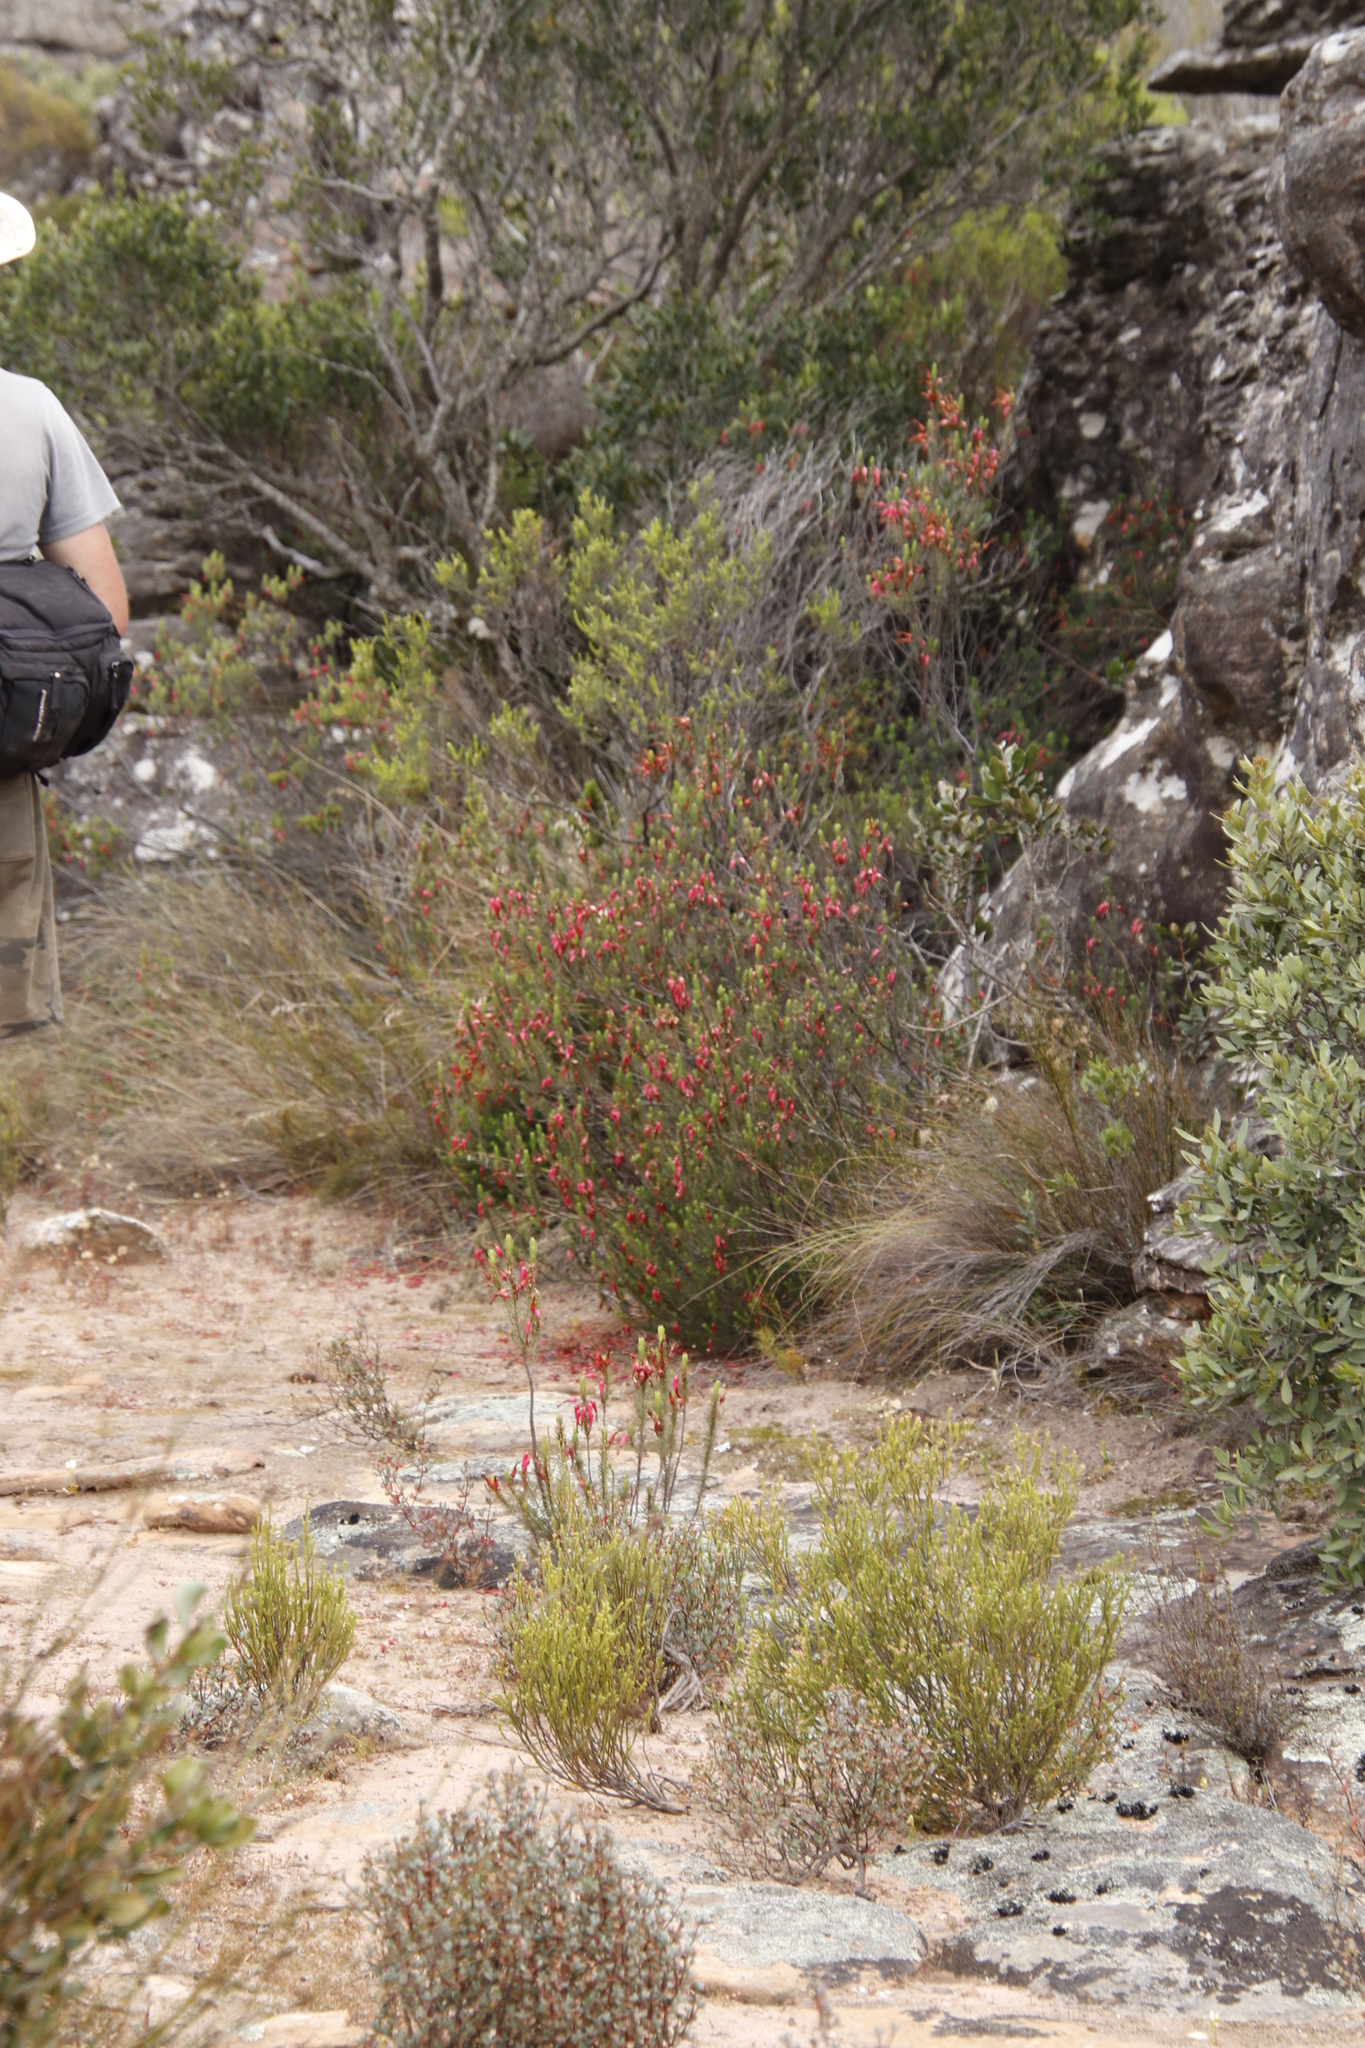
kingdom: Plantae
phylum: Tracheophyta
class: Magnoliopsida
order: Ericales
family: Ericaceae
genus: Erica
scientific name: Erica plukenetii
